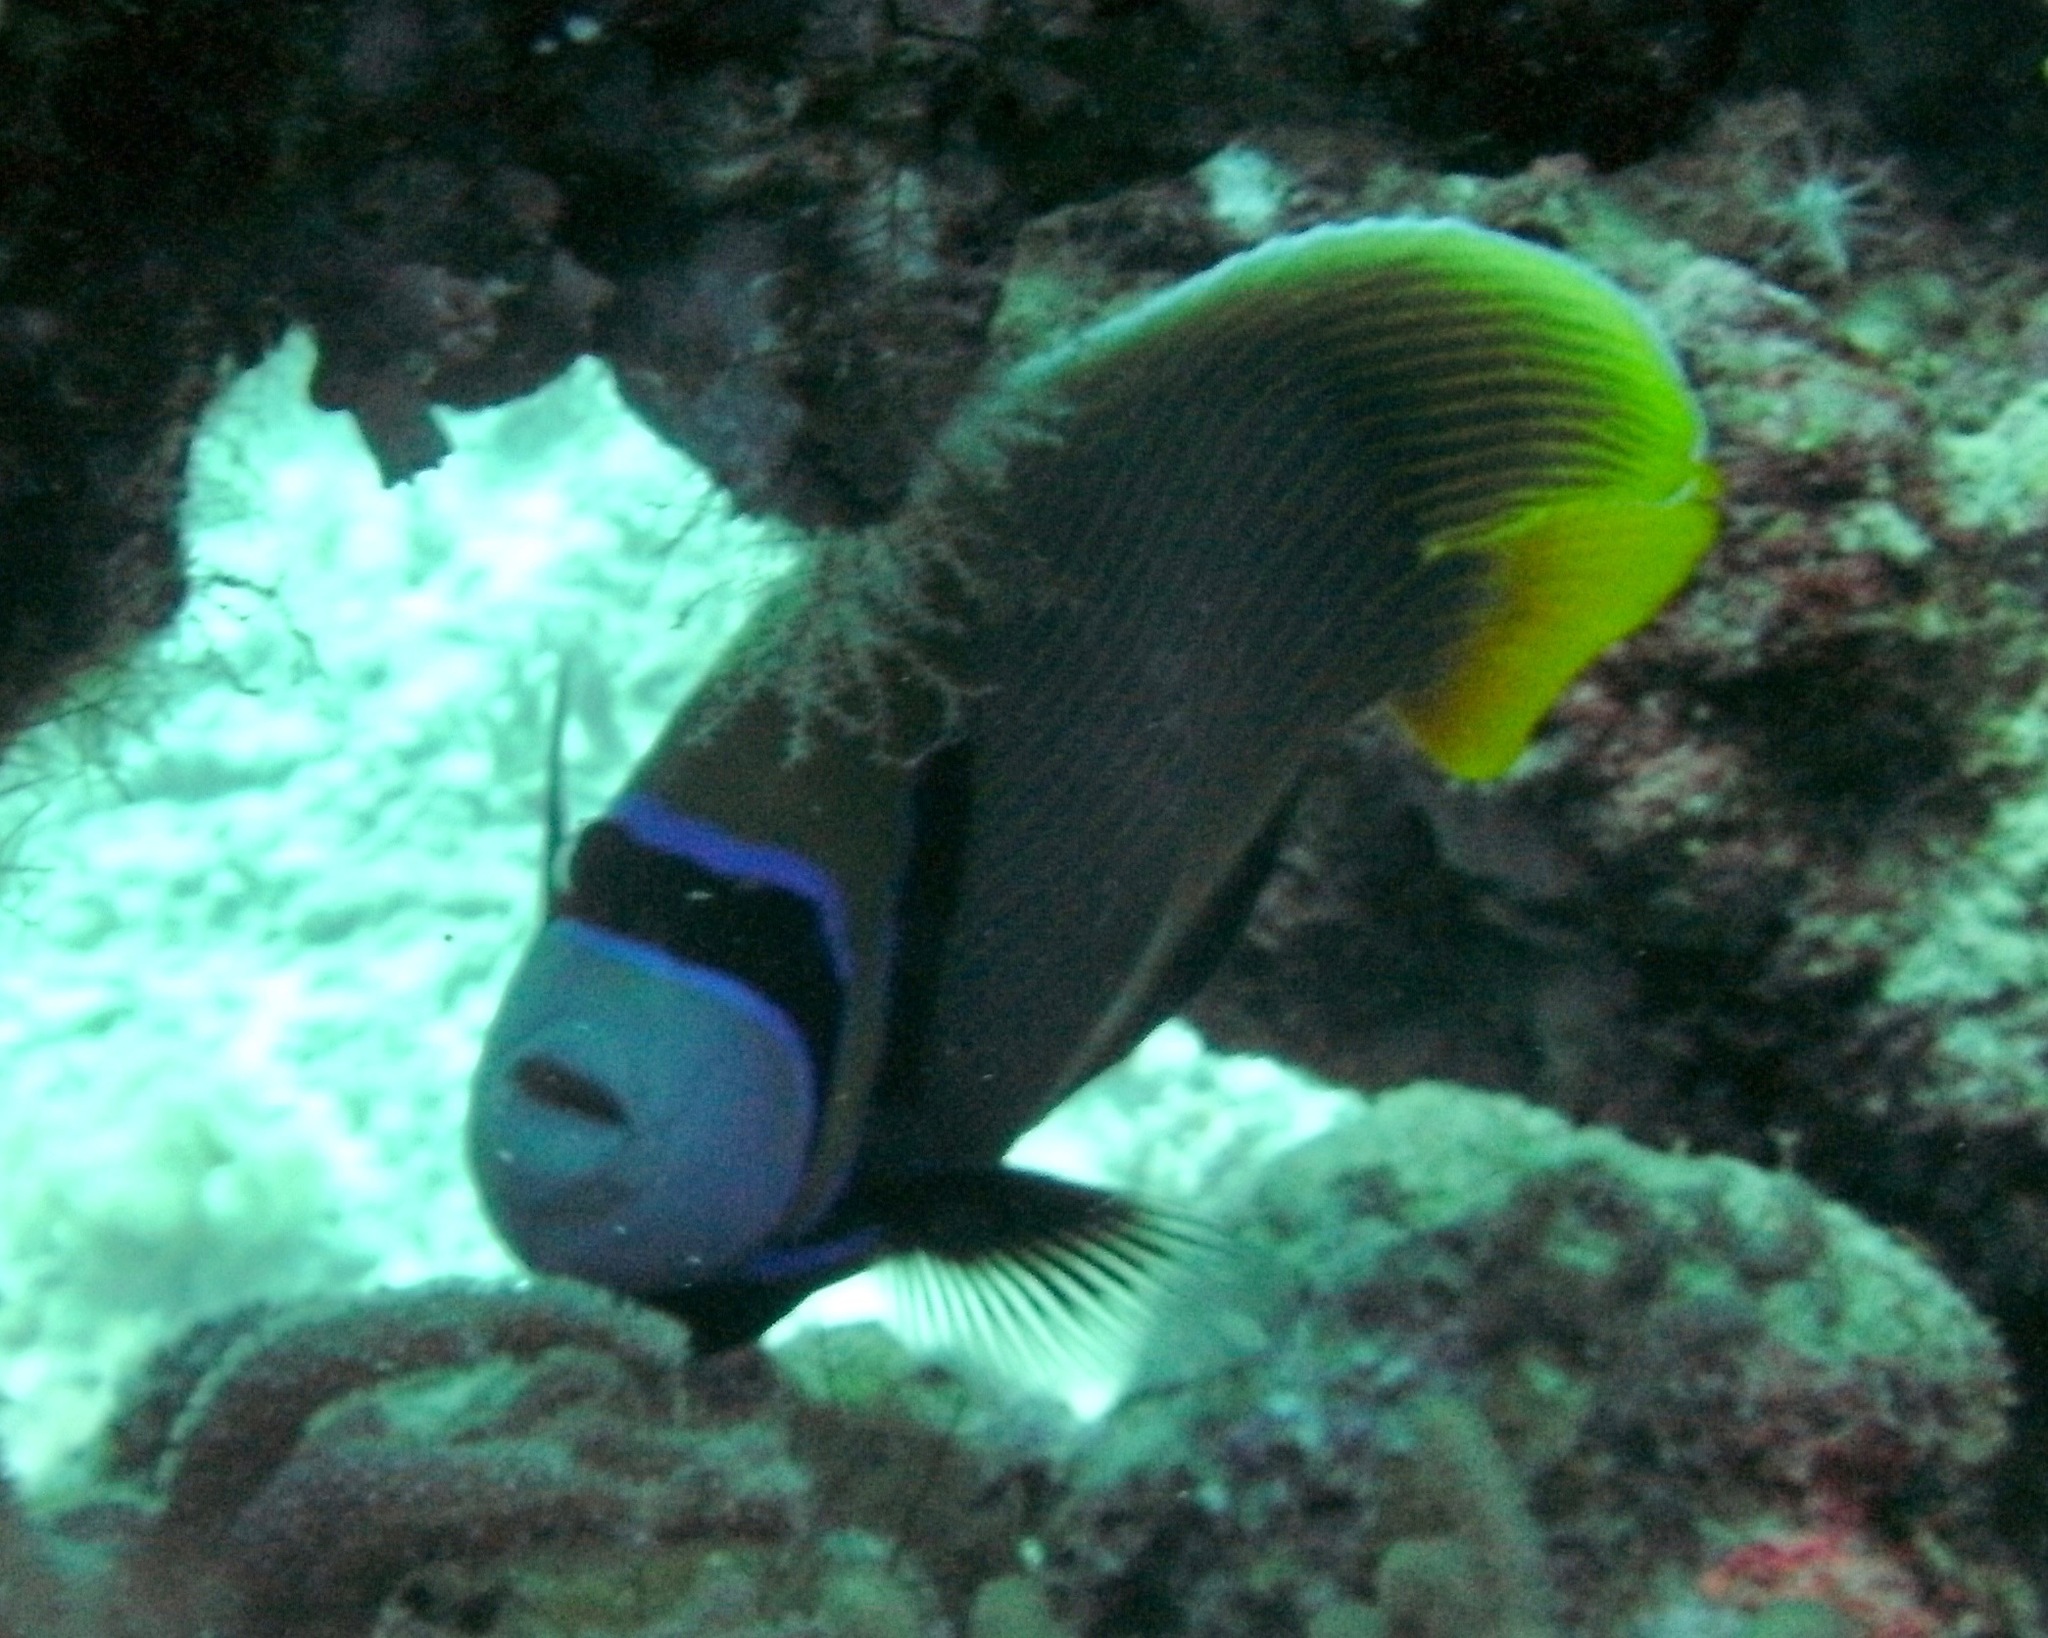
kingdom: Animalia
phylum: Chordata
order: Perciformes
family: Pomacanthidae
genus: Pomacanthus
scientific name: Pomacanthus imperator
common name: Emperor angelfish
